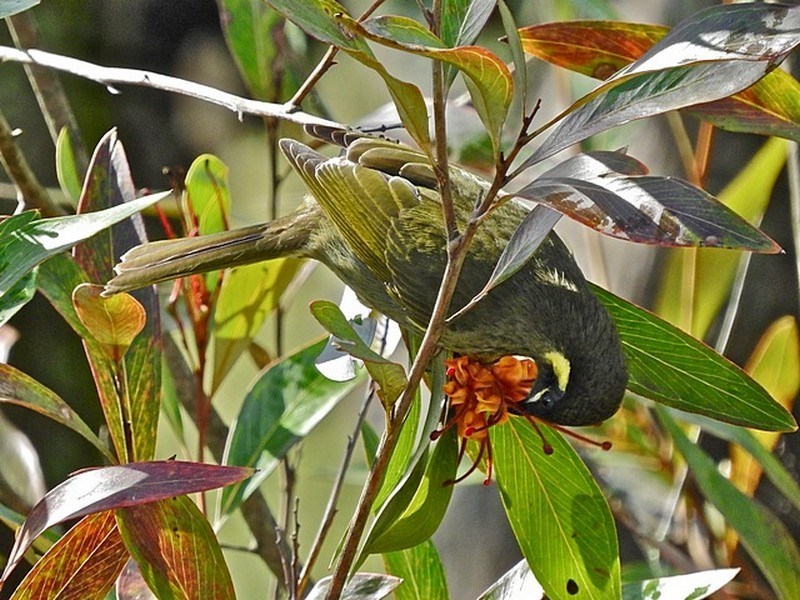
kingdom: Animalia
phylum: Chordata
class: Aves
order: Passeriformes
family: Meliphagidae
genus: Meliphaga
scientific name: Meliphaga lewinii
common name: Lewin's honeyeater
